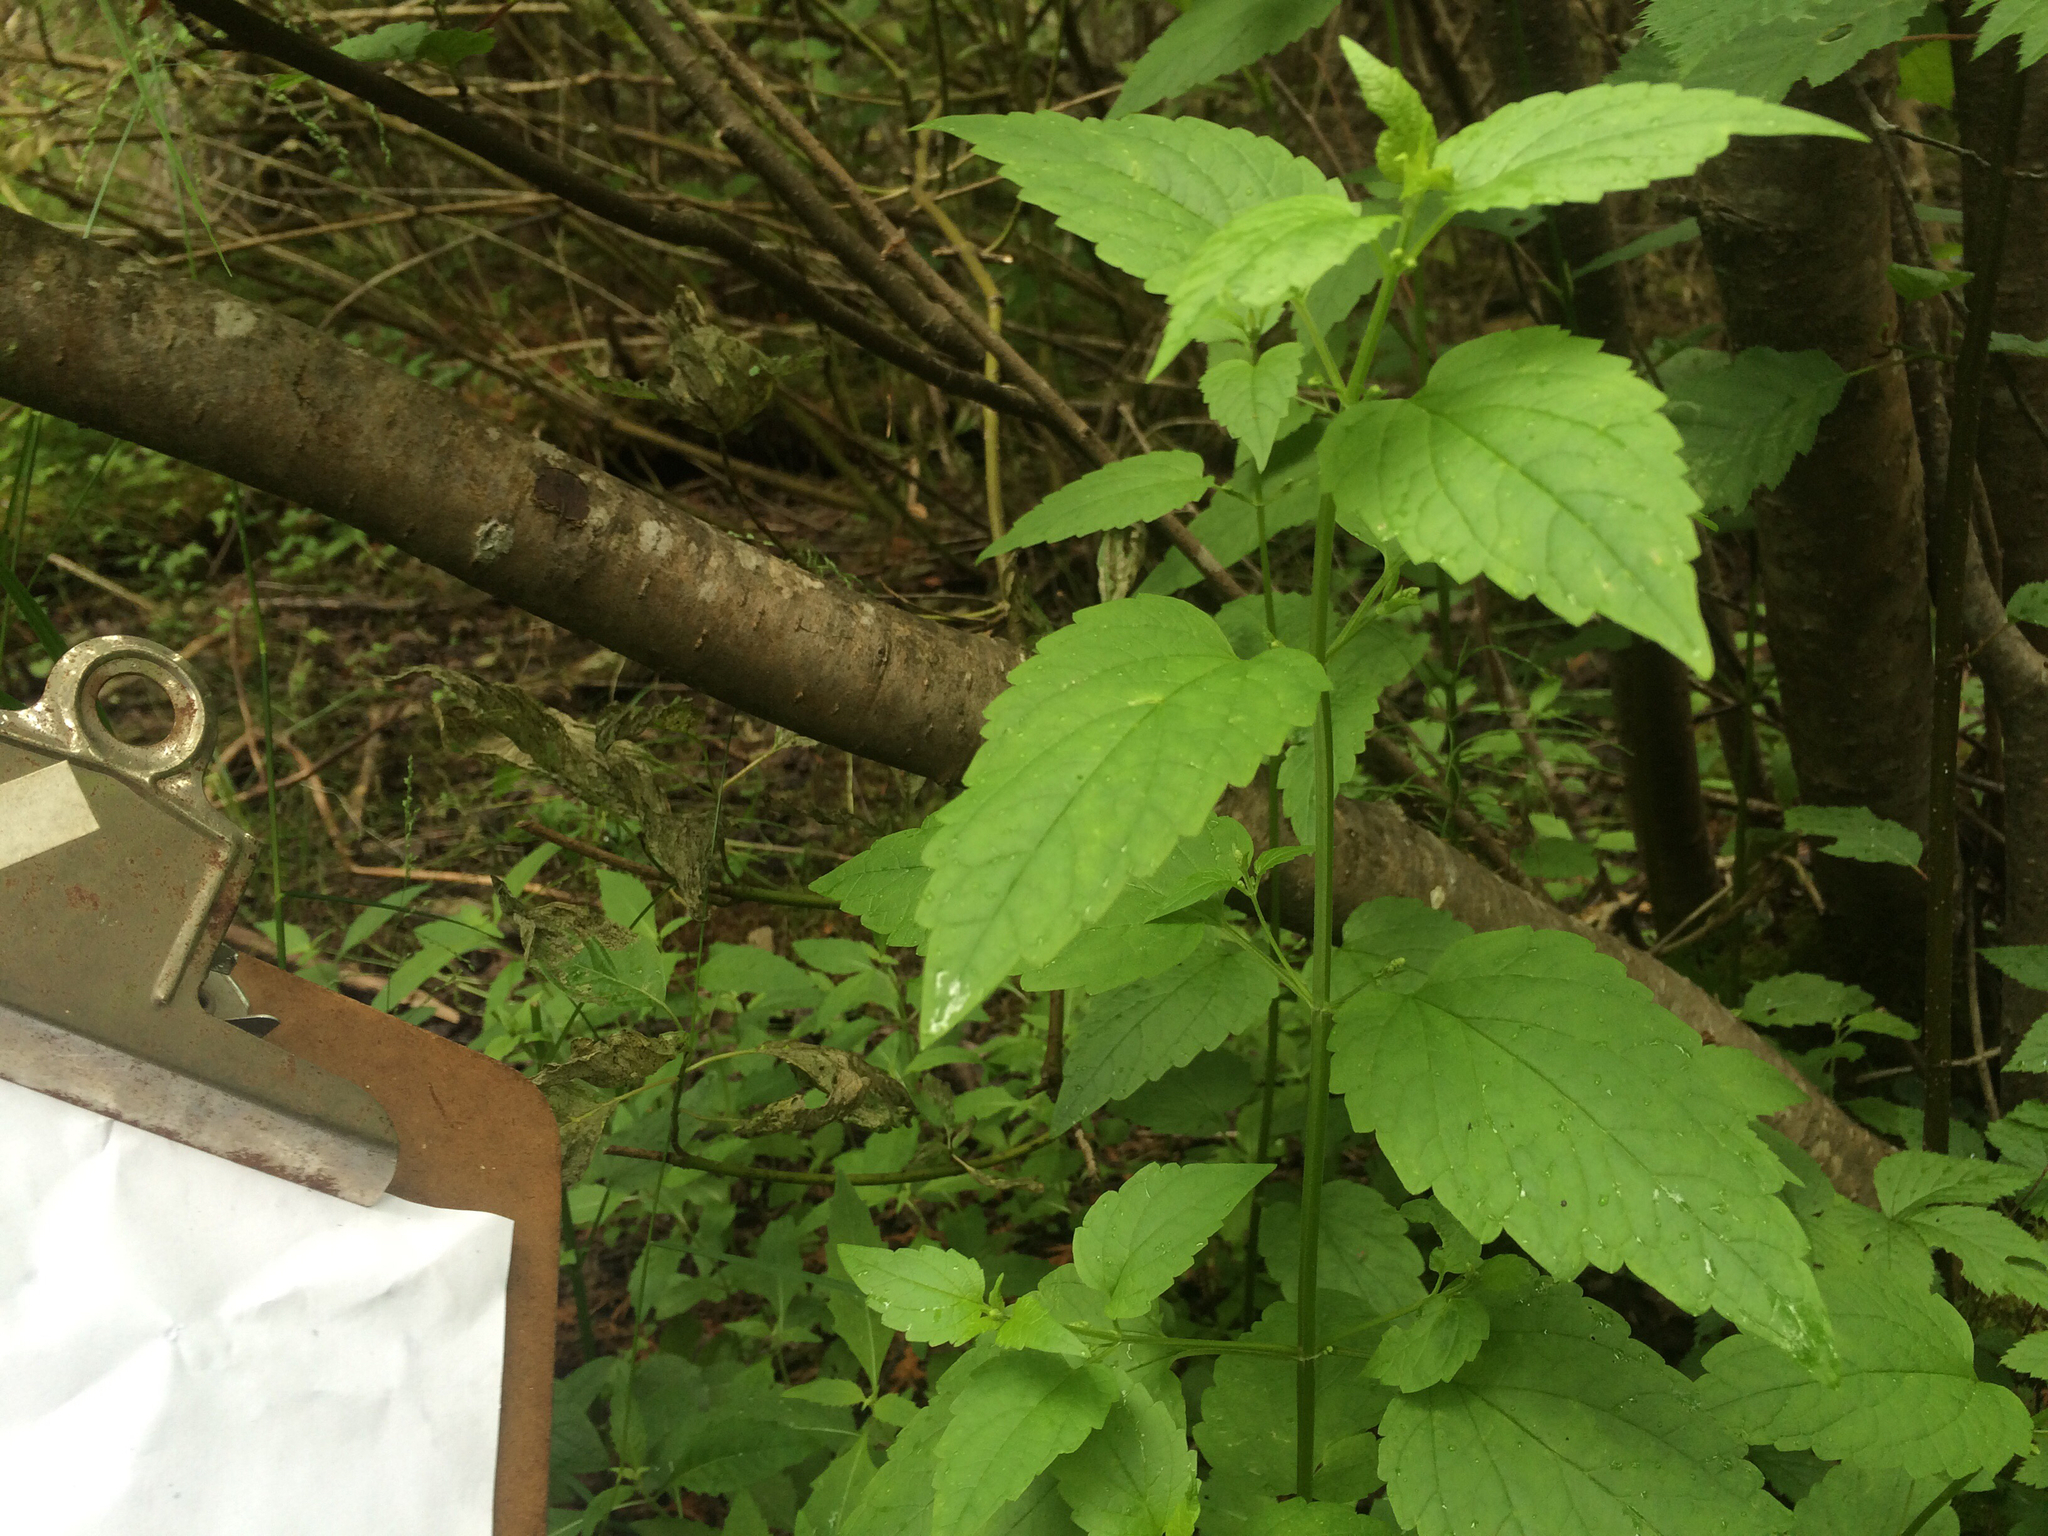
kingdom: Plantae
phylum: Tracheophyta
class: Magnoliopsida
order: Rosales
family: Urticaceae
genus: Boehmeria
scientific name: Boehmeria cylindrica
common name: Bog-hemp
